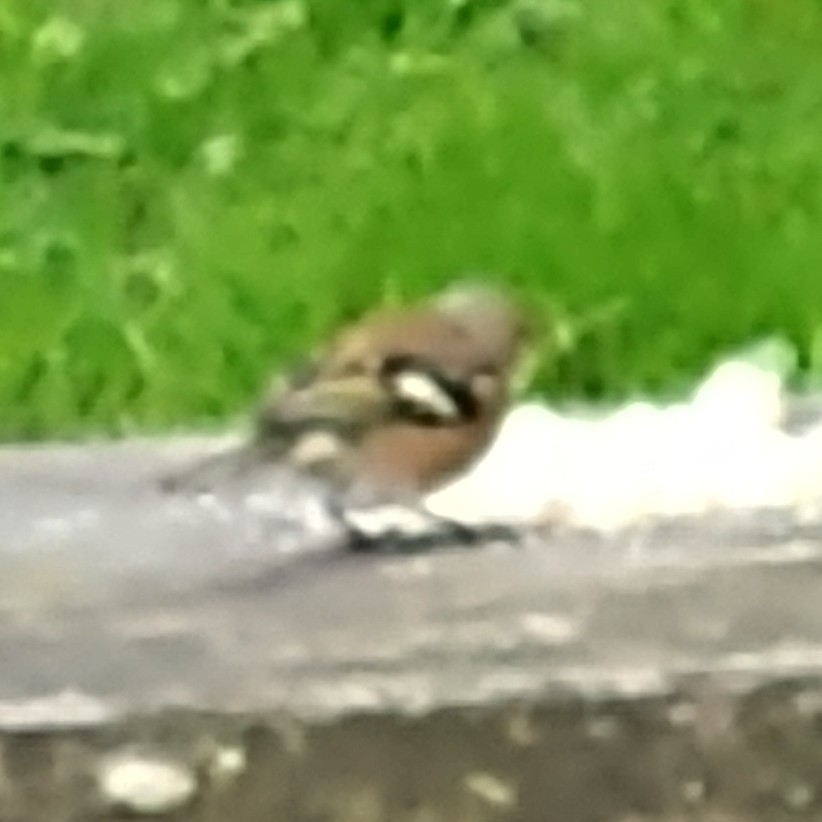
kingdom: Animalia
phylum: Chordata
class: Aves
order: Passeriformes
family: Fringillidae
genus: Fringilla
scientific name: Fringilla coelebs
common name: Common chaffinch
